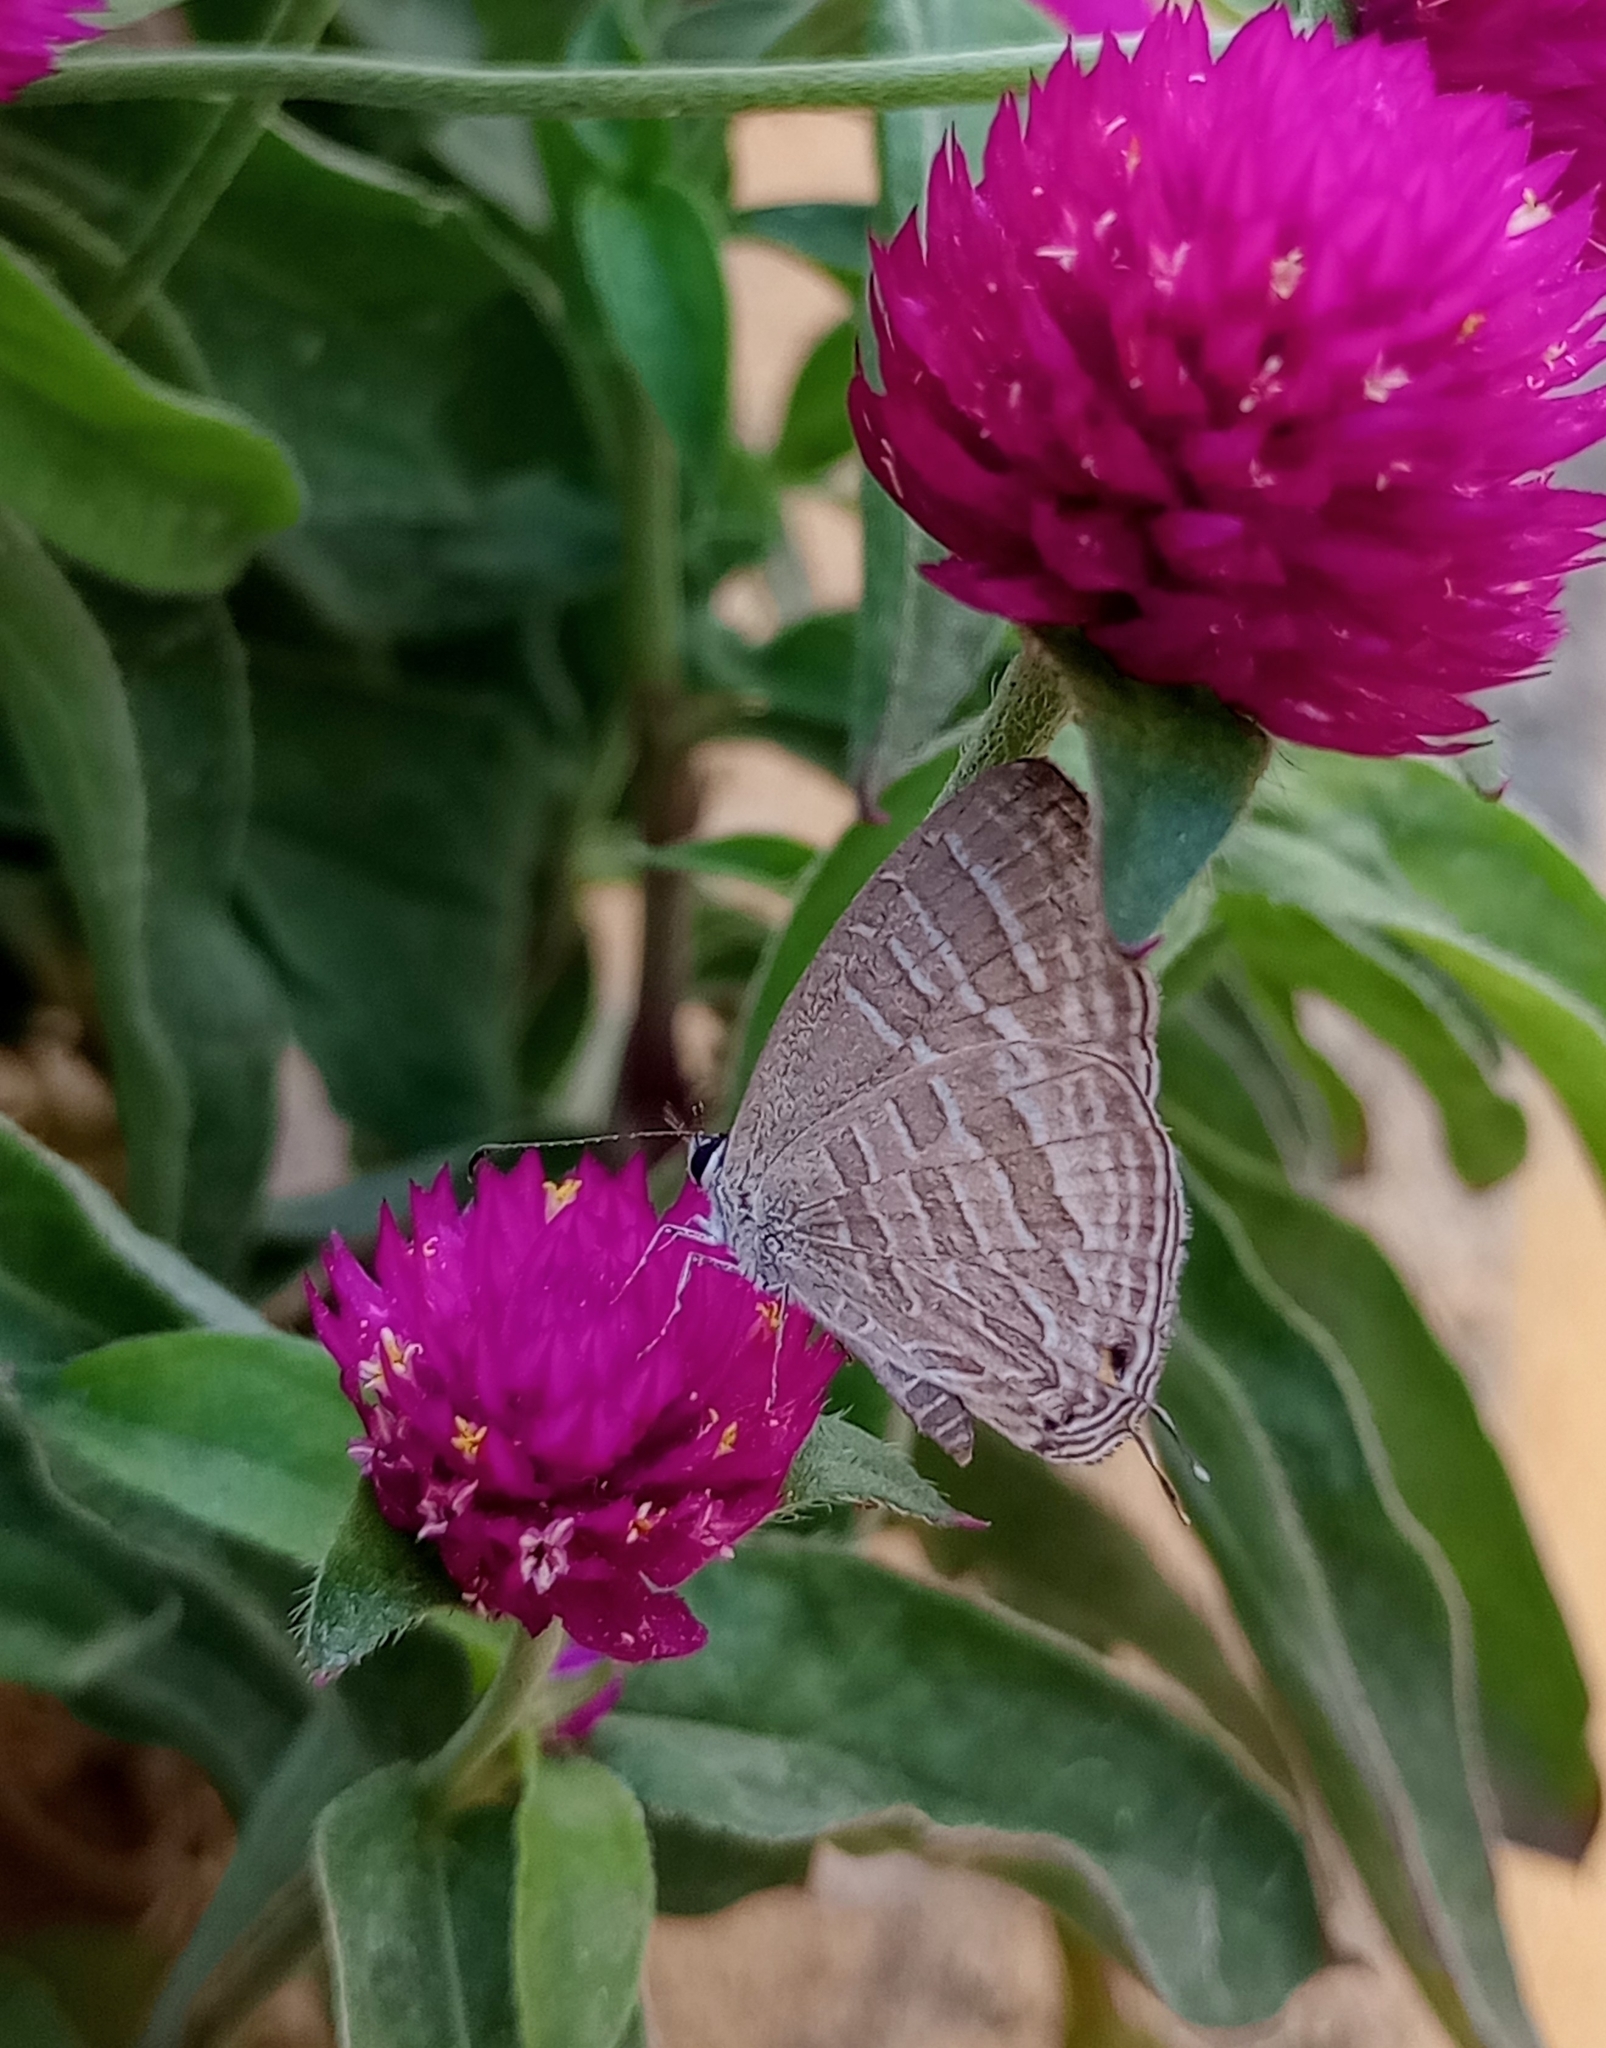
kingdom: Animalia
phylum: Arthropoda
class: Insecta
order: Lepidoptera
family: Lycaenidae
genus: Jamides
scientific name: Jamides celeno
